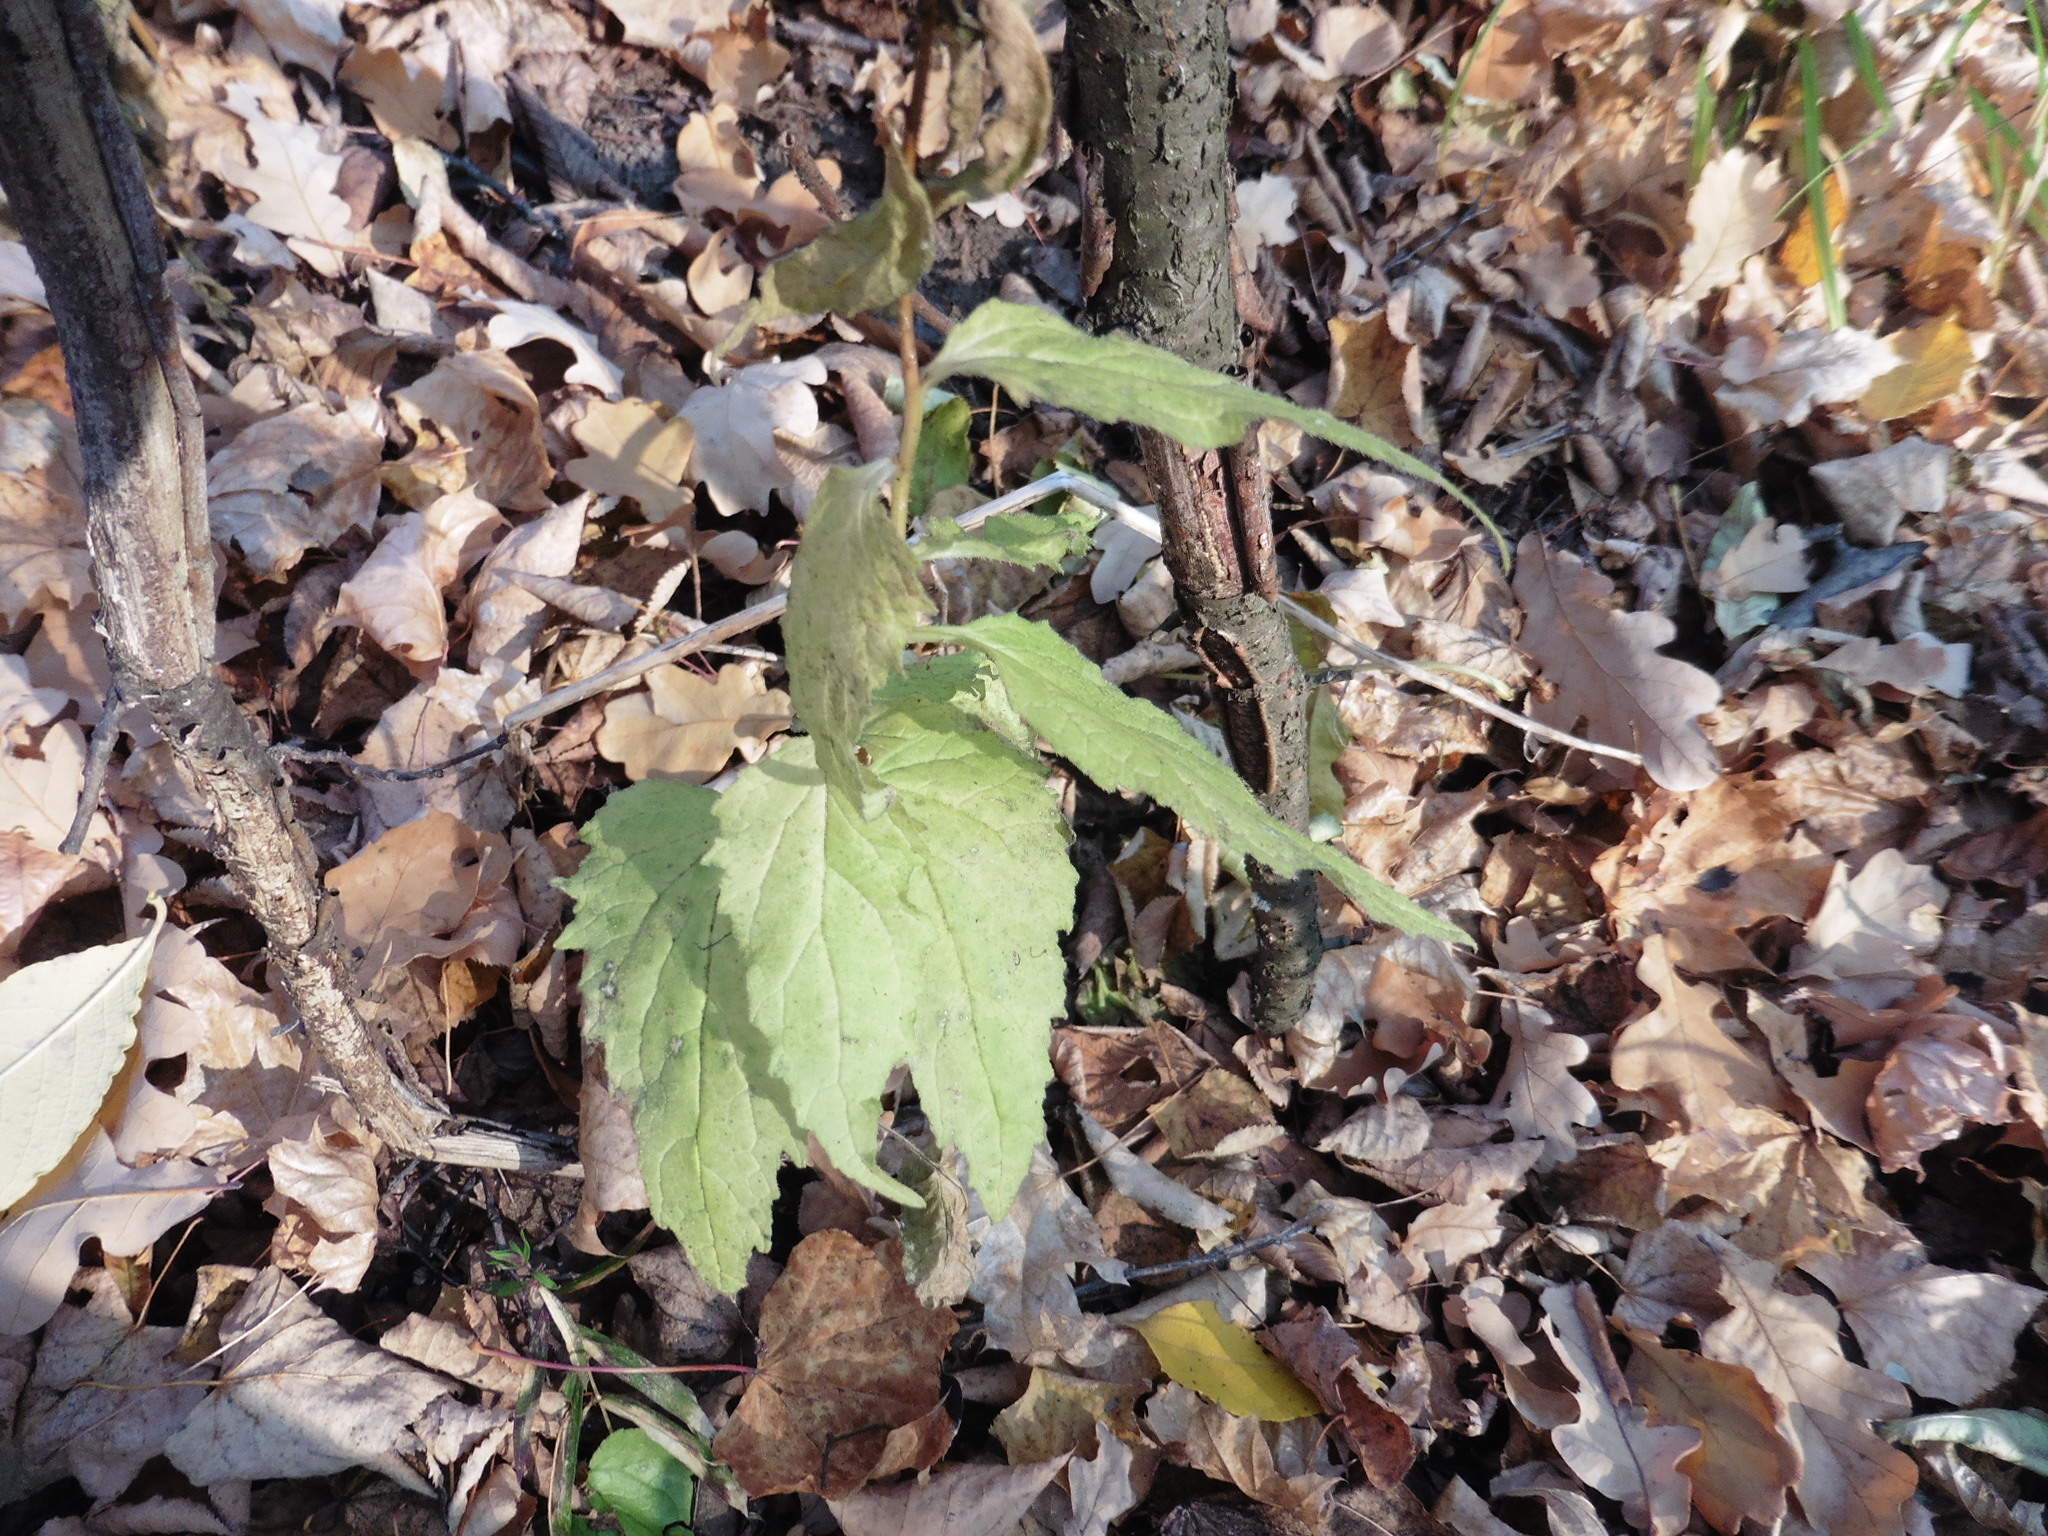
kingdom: Plantae
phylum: Tracheophyta
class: Magnoliopsida
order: Asterales
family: Campanulaceae
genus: Campanula
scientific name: Campanula trachelium
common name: Nettle-leaved bellflower
